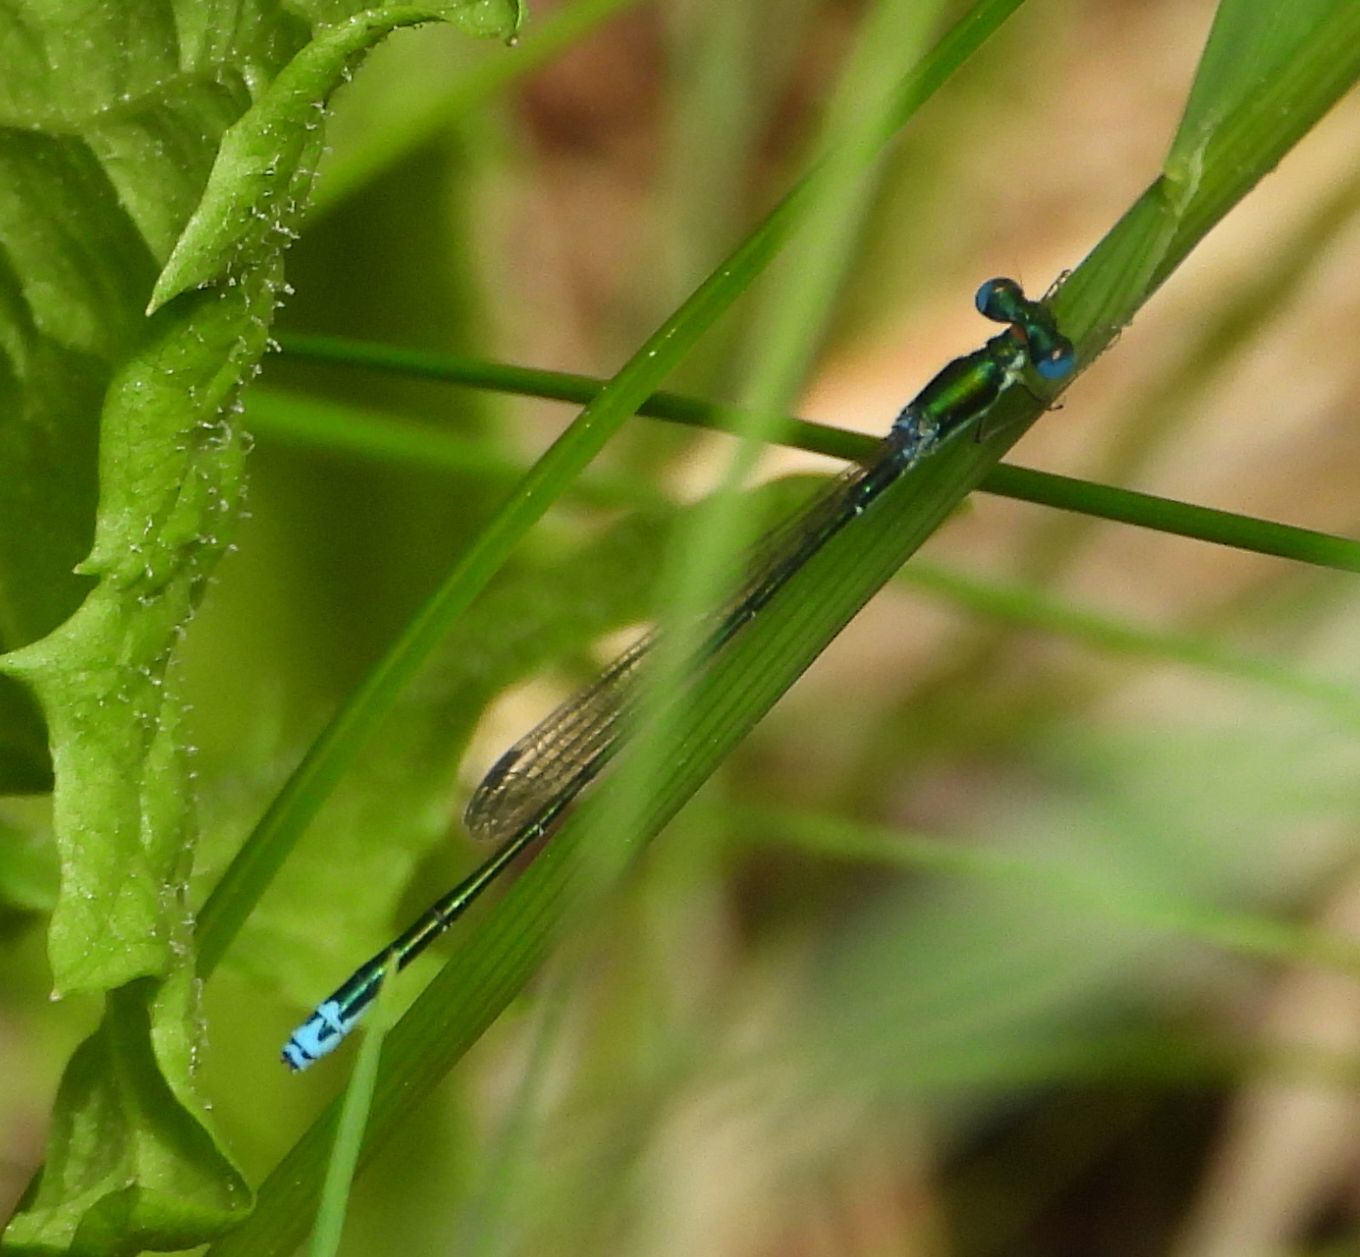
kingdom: Animalia
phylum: Arthropoda
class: Insecta
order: Odonata
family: Coenagrionidae
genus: Nehalennia
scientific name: Nehalennia irene
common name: Sedge sprite
